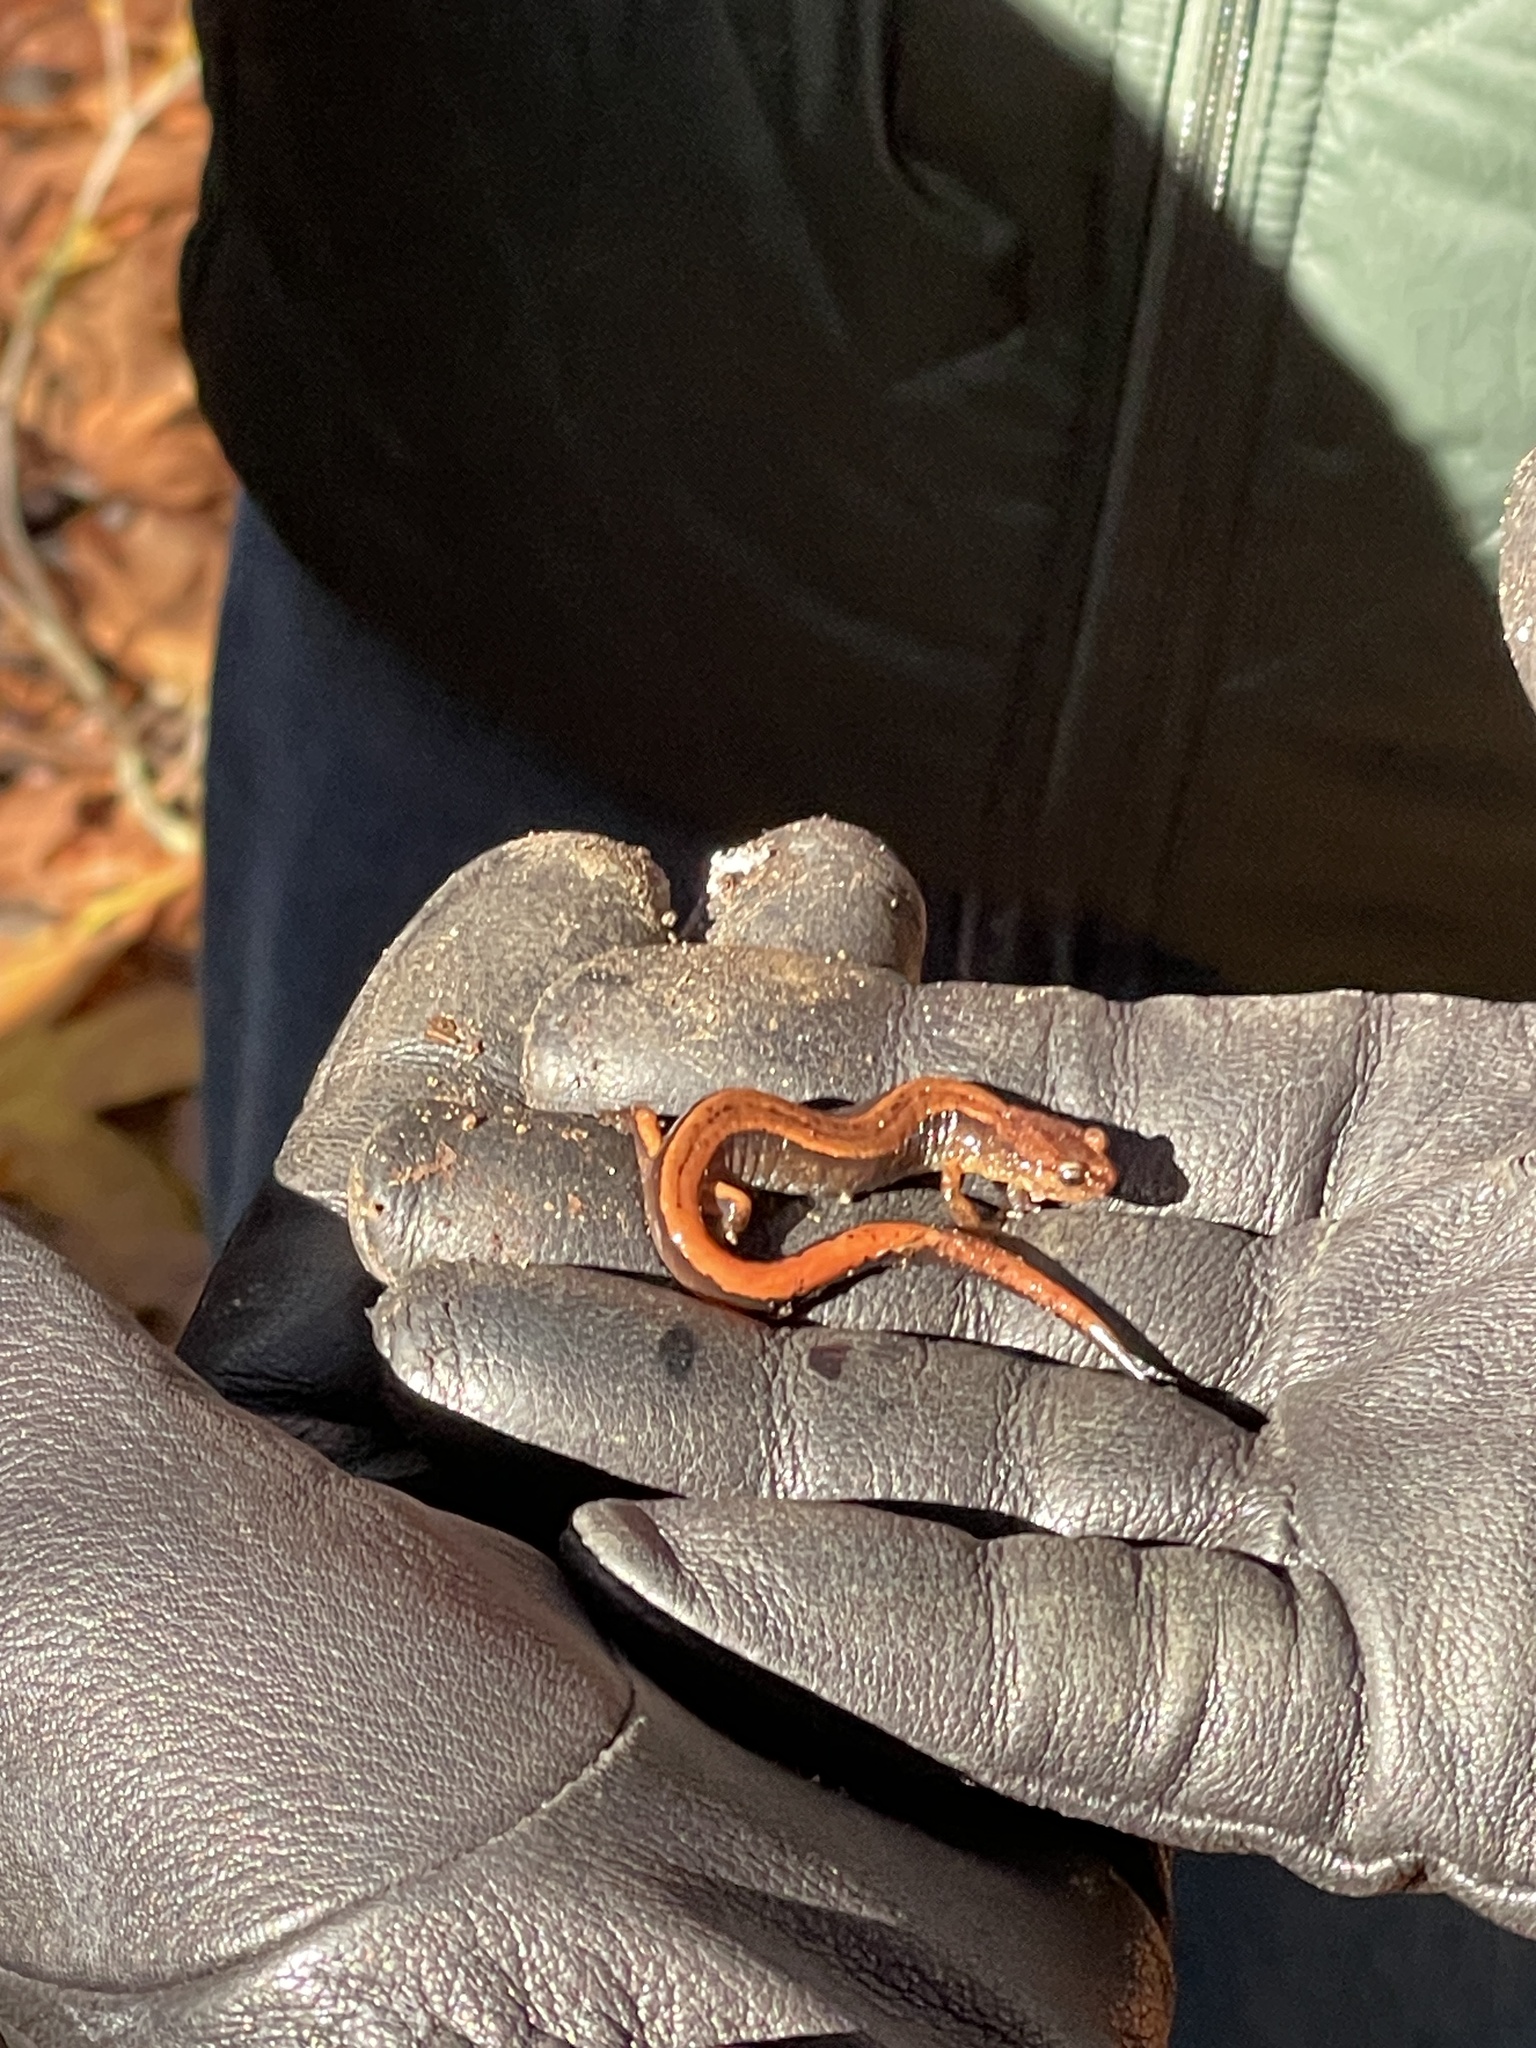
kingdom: Animalia
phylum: Chordata
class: Amphibia
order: Caudata
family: Plethodontidae
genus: Plethodon
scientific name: Plethodon vehiculum
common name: Western red-backed salamander
